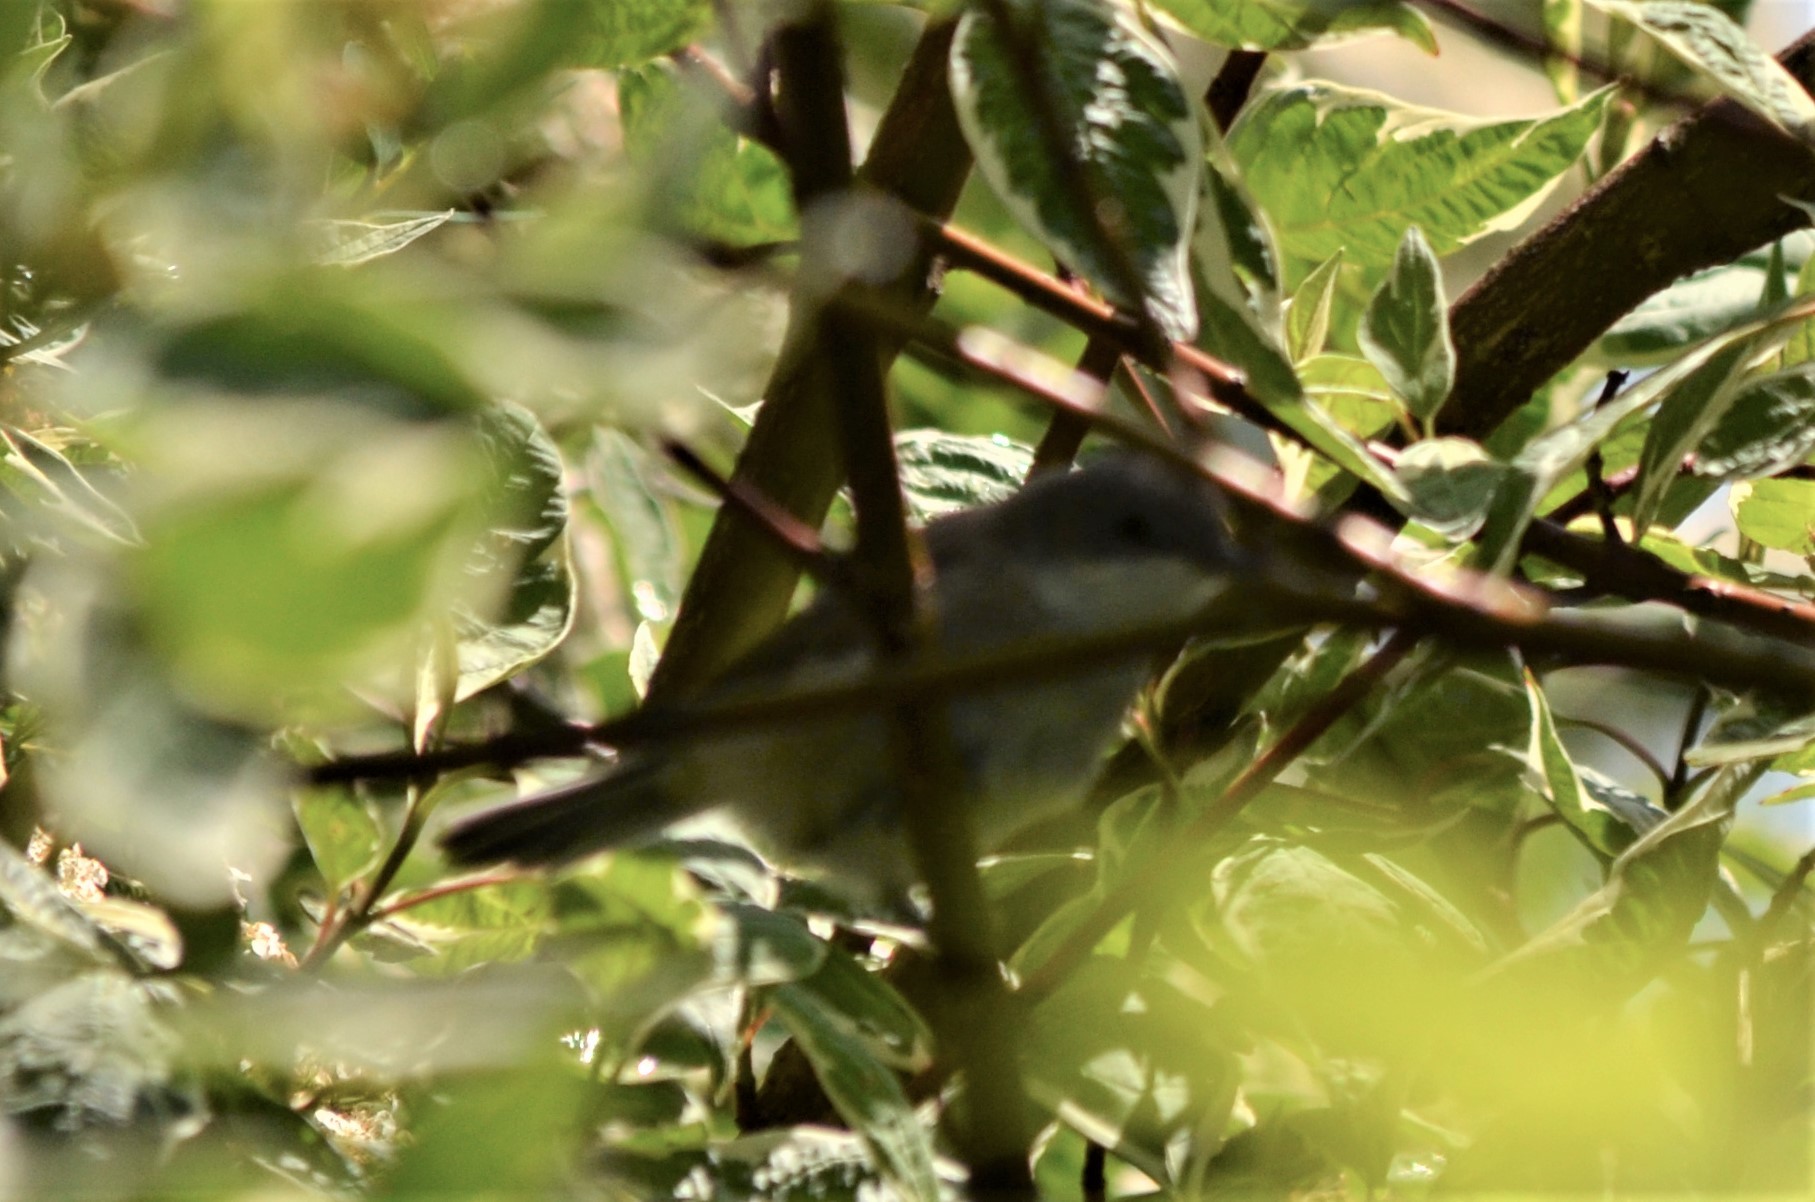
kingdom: Animalia
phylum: Chordata
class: Aves
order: Passeriformes
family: Sylviidae
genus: Sylvia
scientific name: Sylvia curruca
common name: Lesser whitethroat
